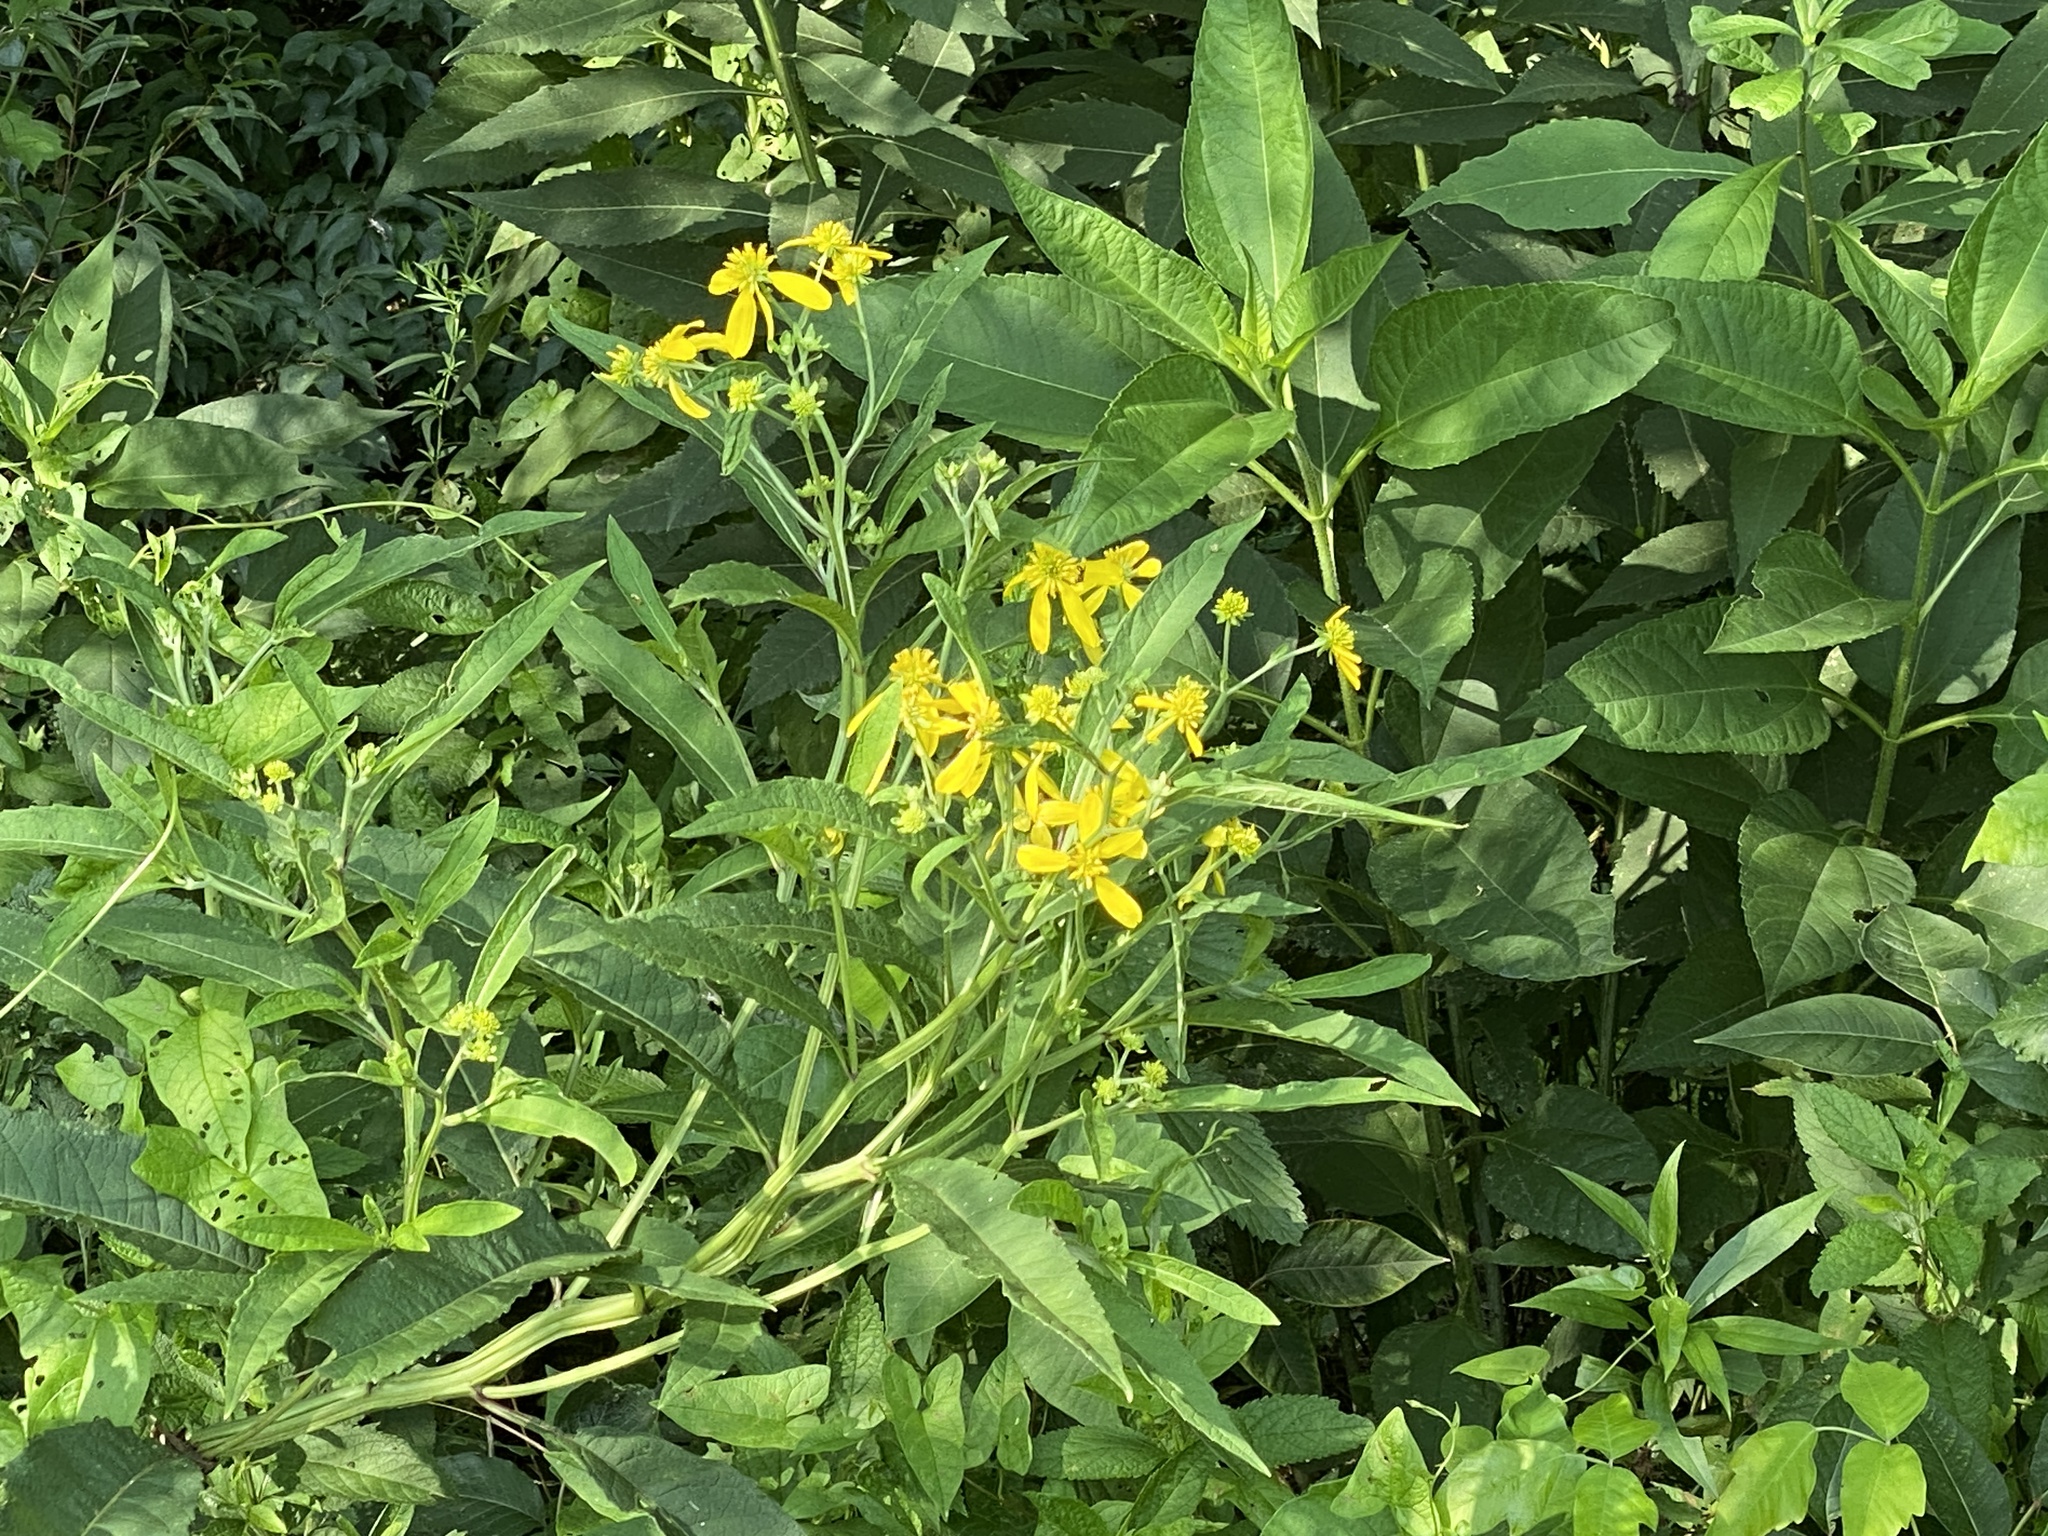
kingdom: Plantae
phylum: Tracheophyta
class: Magnoliopsida
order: Asterales
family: Asteraceae
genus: Verbesina
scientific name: Verbesina alternifolia
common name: Wingstem
